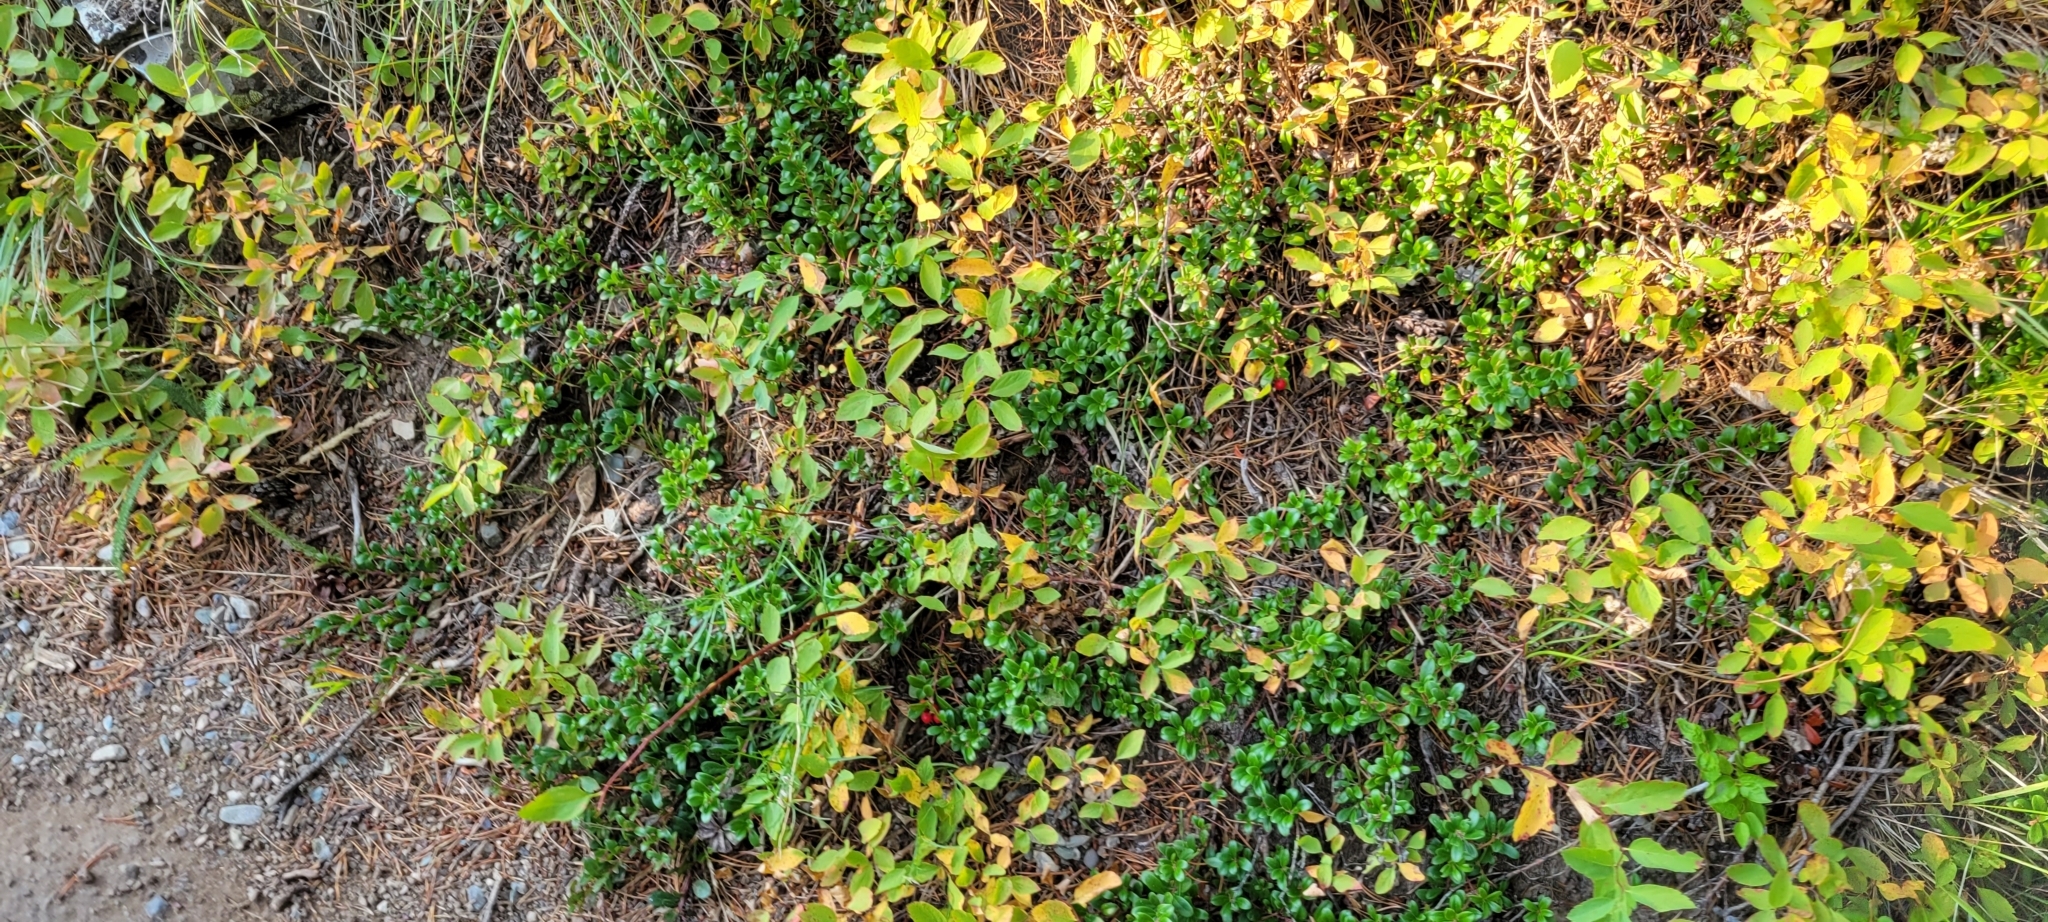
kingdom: Plantae
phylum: Tracheophyta
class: Magnoliopsida
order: Ericales
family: Ericaceae
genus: Arctostaphylos
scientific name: Arctostaphylos uva-ursi
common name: Bearberry
